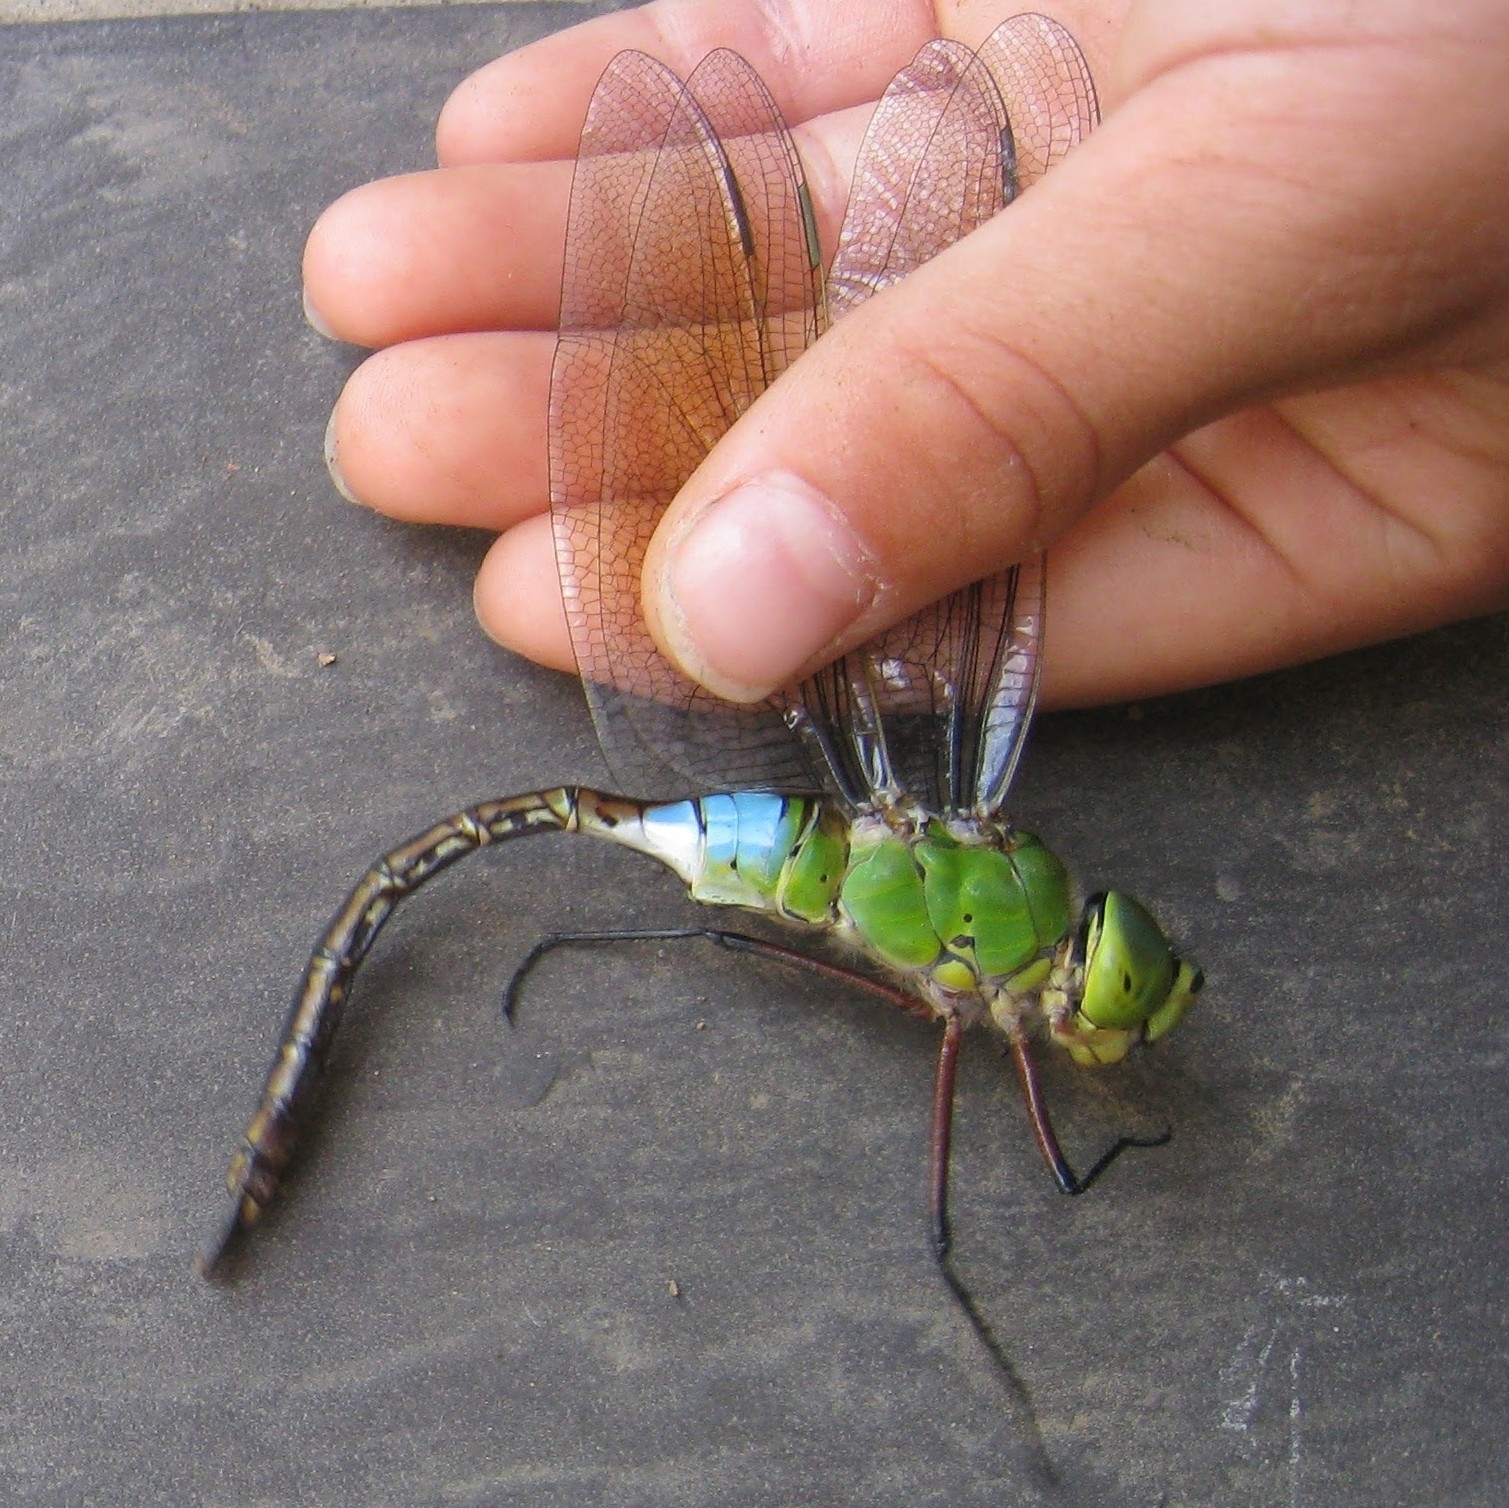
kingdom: Animalia
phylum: Arthropoda
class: Insecta
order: Odonata
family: Aeshnidae
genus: Anax
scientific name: Anax julius
